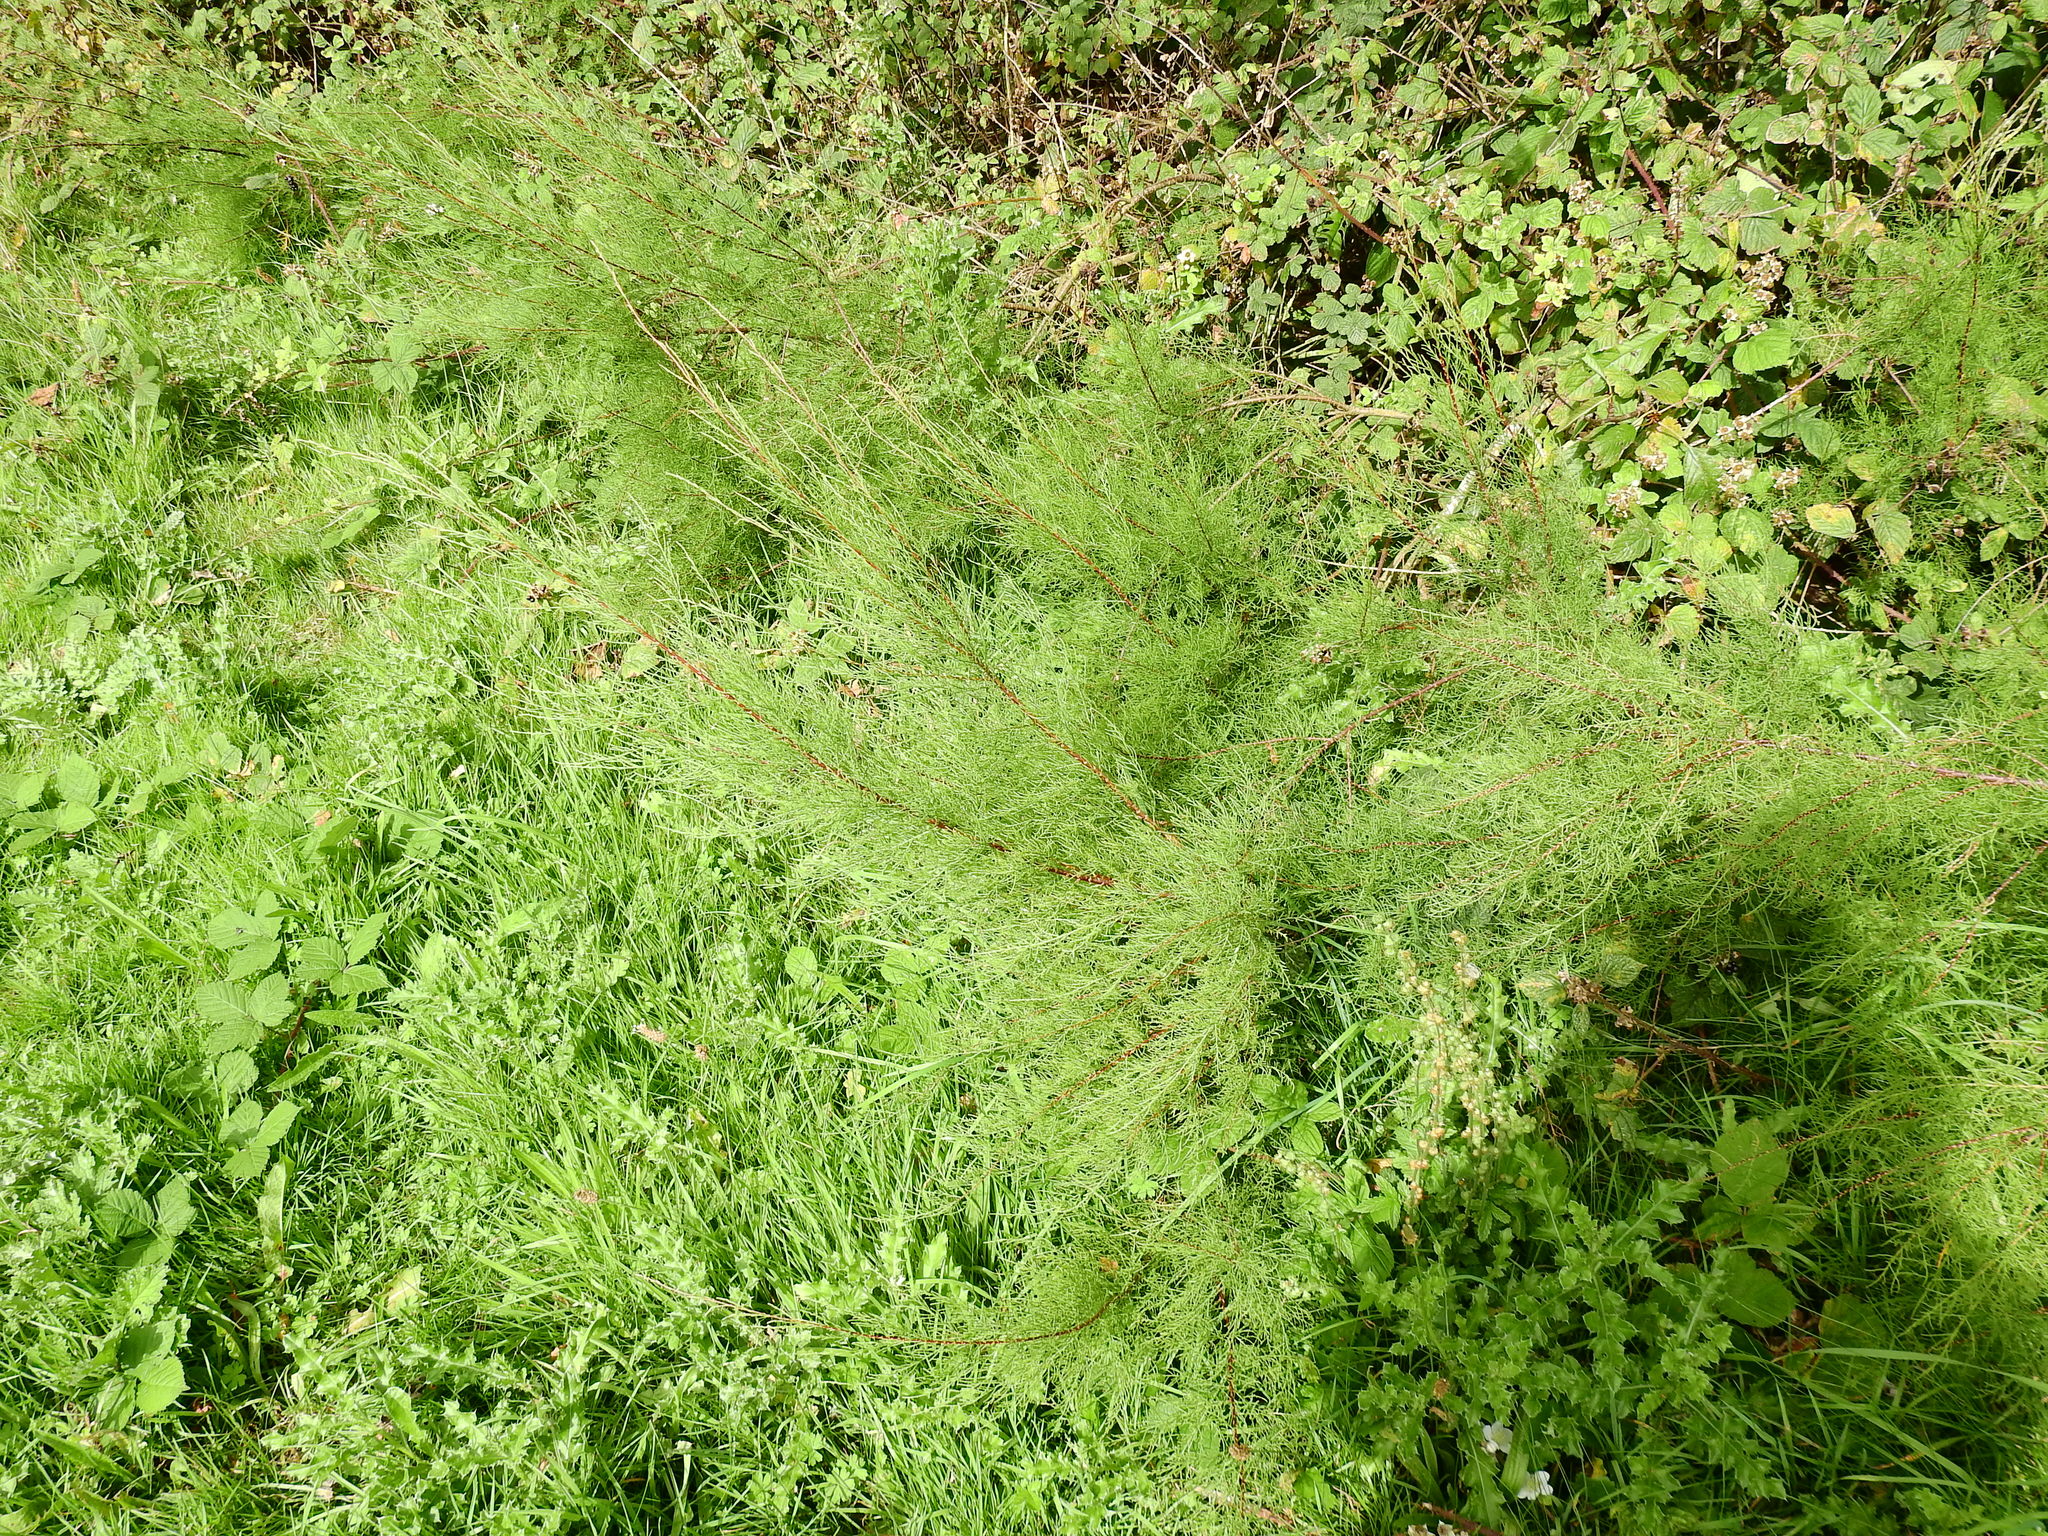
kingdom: Plantae
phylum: Tracheophyta
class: Magnoliopsida
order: Caryophyllales
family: Tamaricaceae
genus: Tamarix
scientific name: Tamarix gallica
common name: Tamarisk
